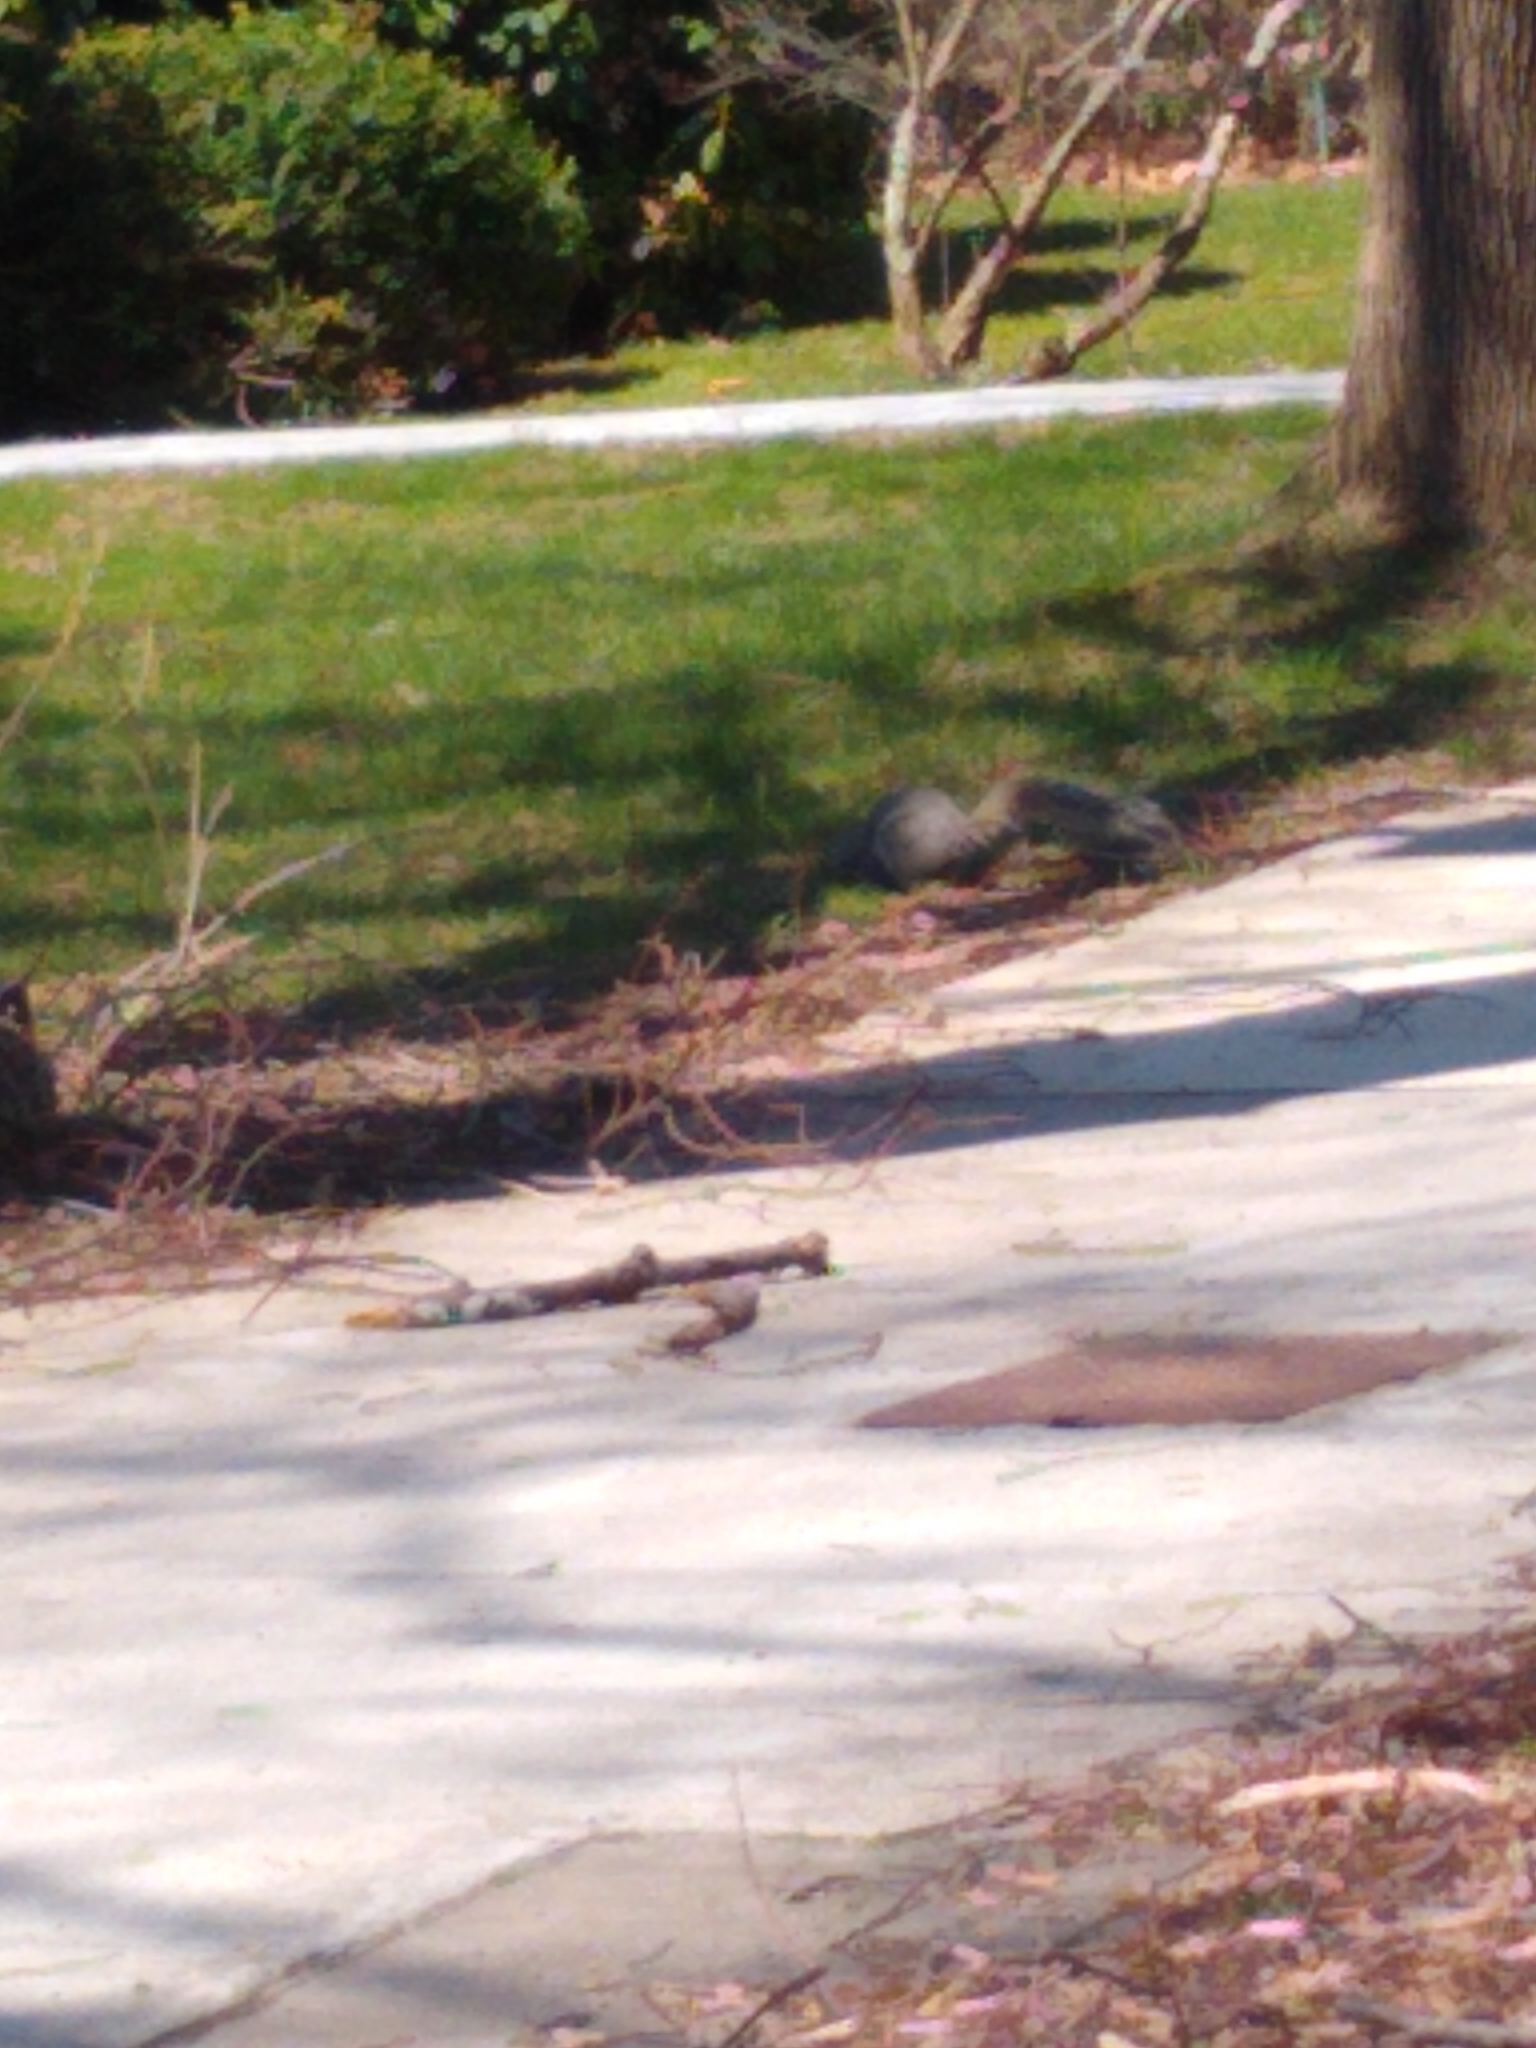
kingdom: Animalia
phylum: Chordata
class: Mammalia
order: Rodentia
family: Sciuridae
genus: Sciurus
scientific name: Sciurus carolinensis
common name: Eastern gray squirrel
